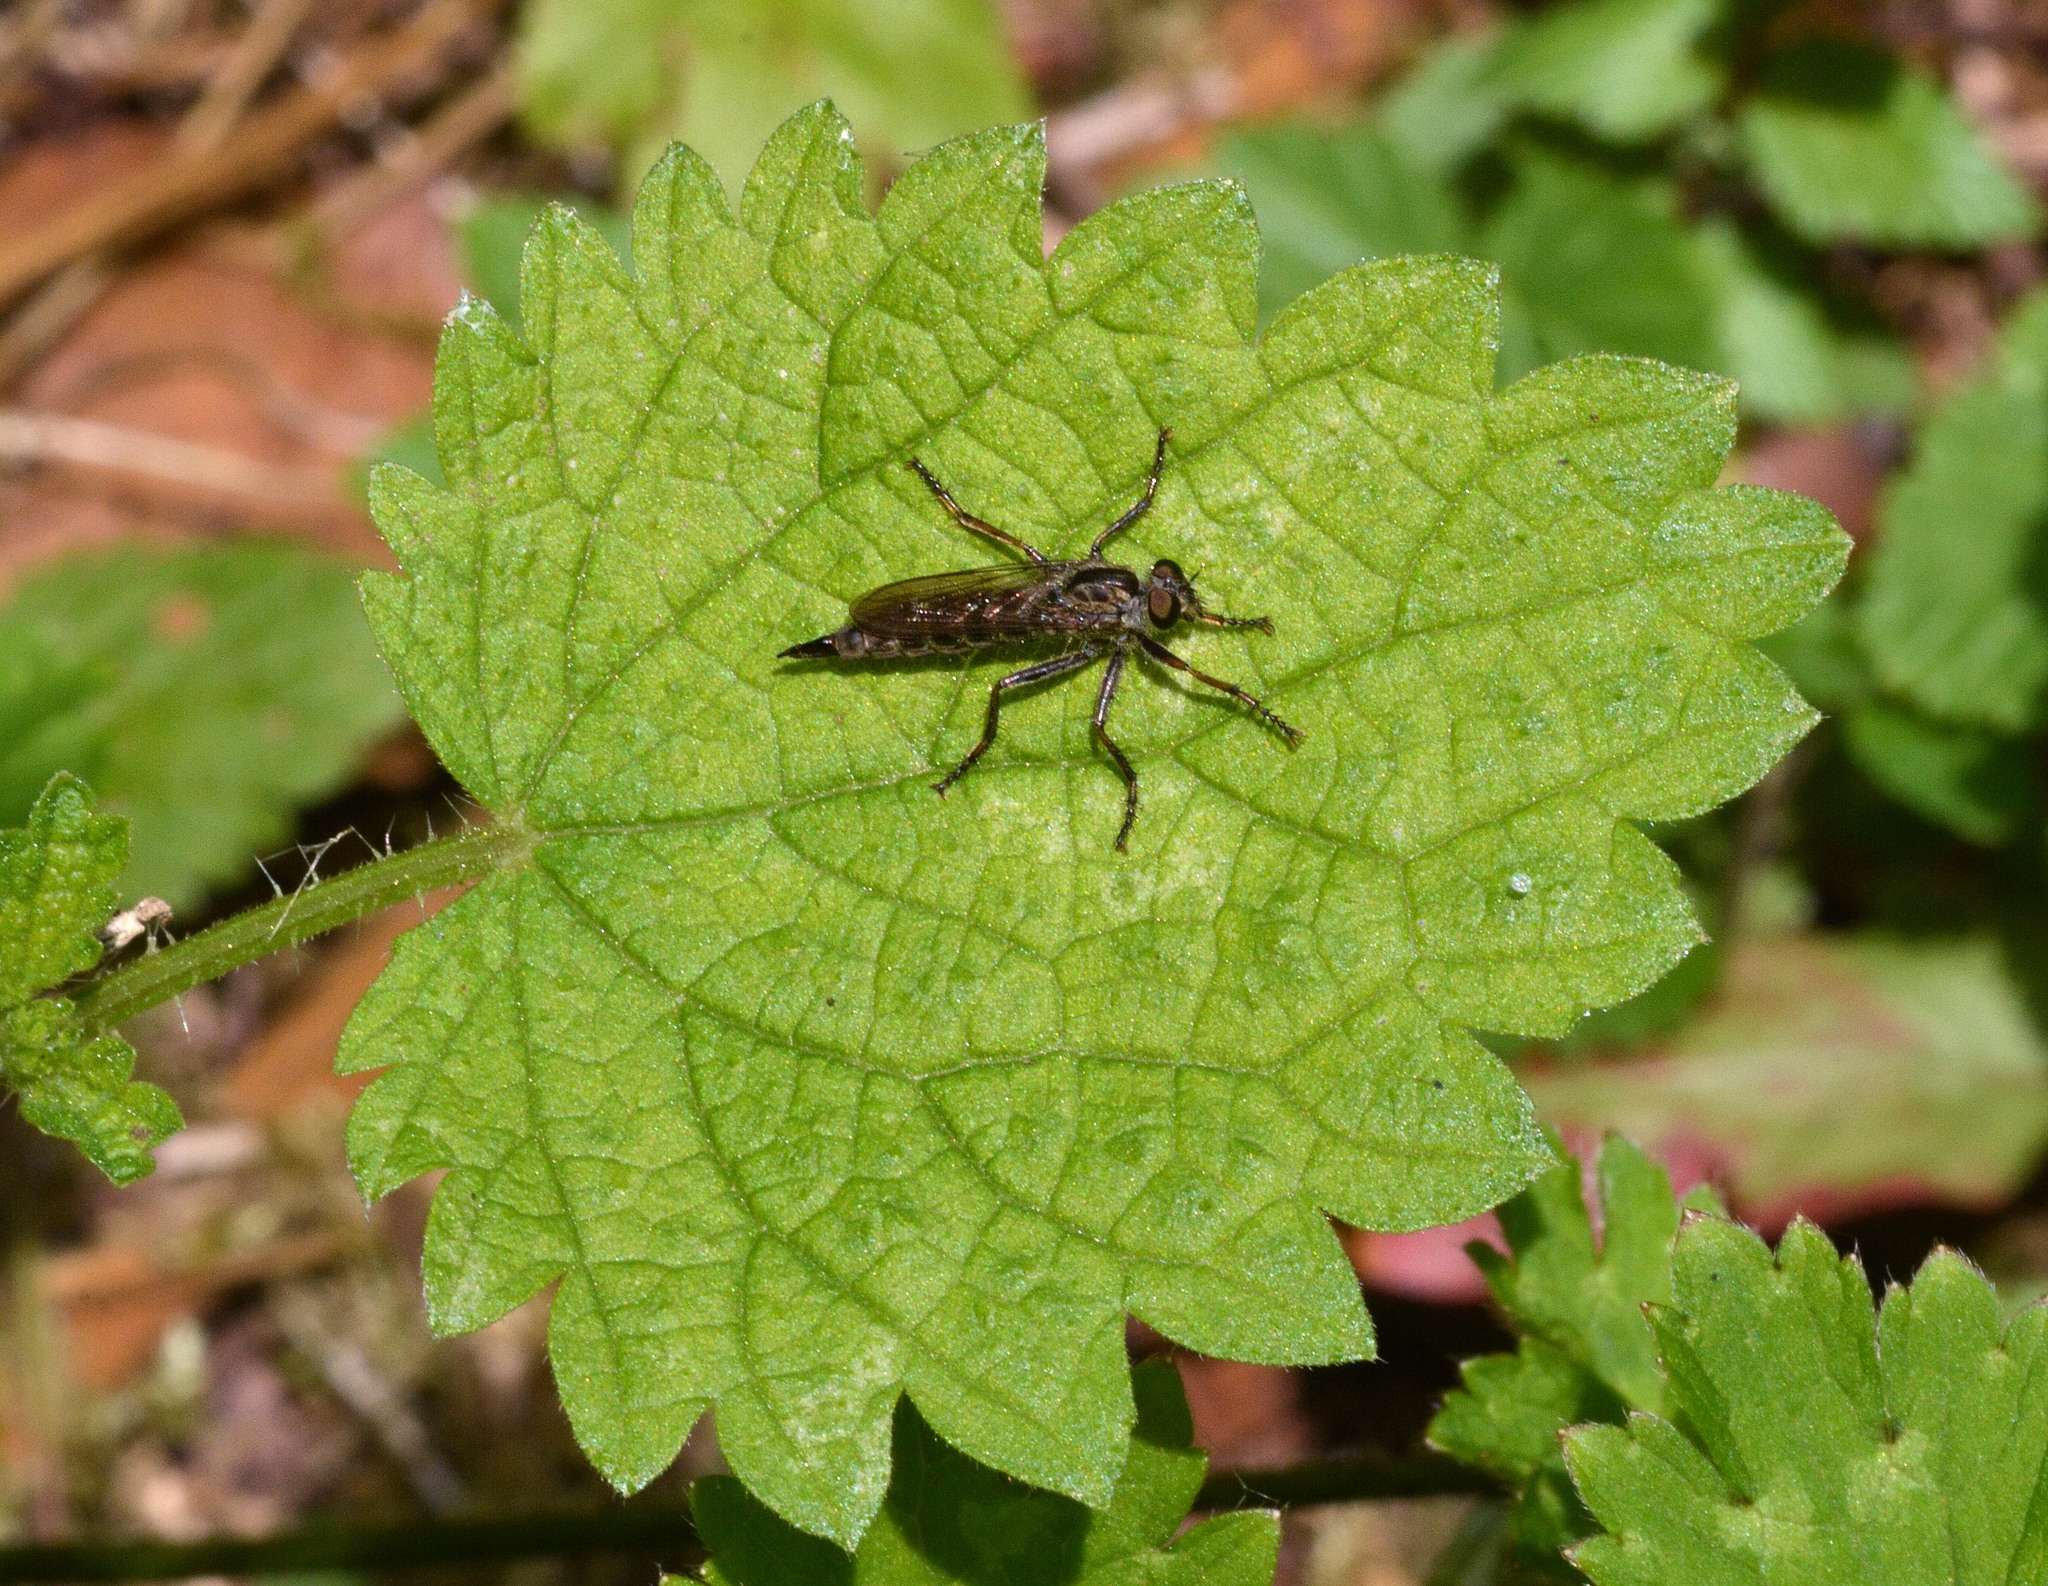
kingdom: Animalia
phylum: Arthropoda
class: Insecta
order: Diptera
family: Asilidae
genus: Machimus
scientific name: Machimus atricapillus
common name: Kite-tailed robberfly
